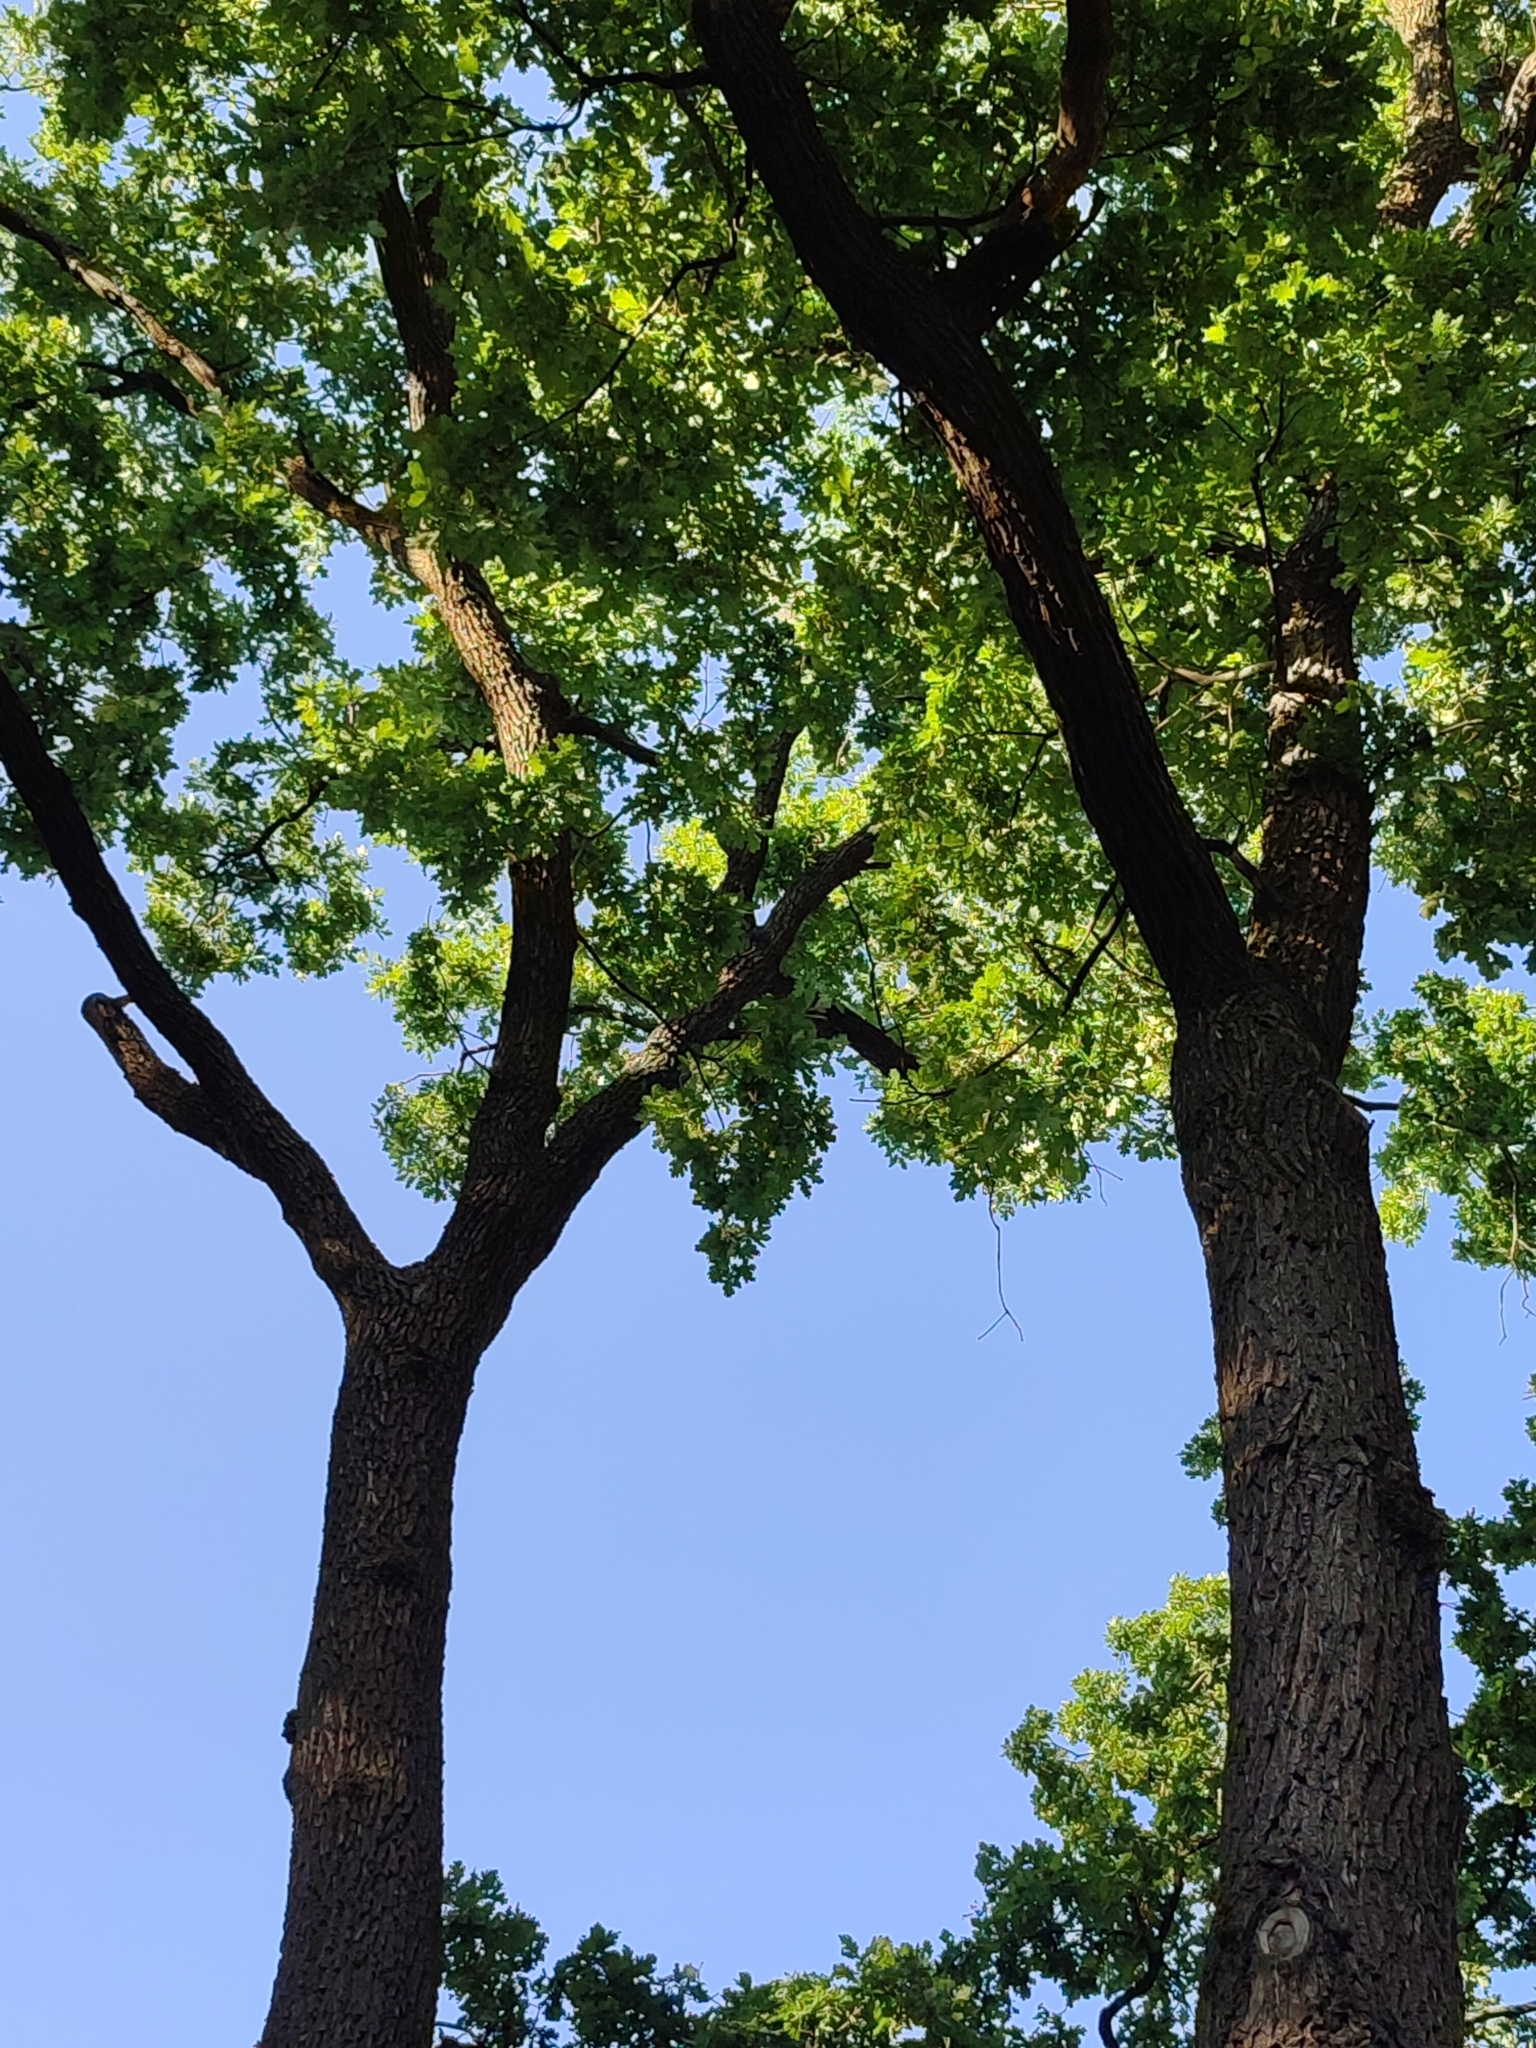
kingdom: Plantae
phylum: Tracheophyta
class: Magnoliopsida
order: Fagales
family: Fagaceae
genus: Quercus
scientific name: Quercus robur
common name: Pedunculate oak
